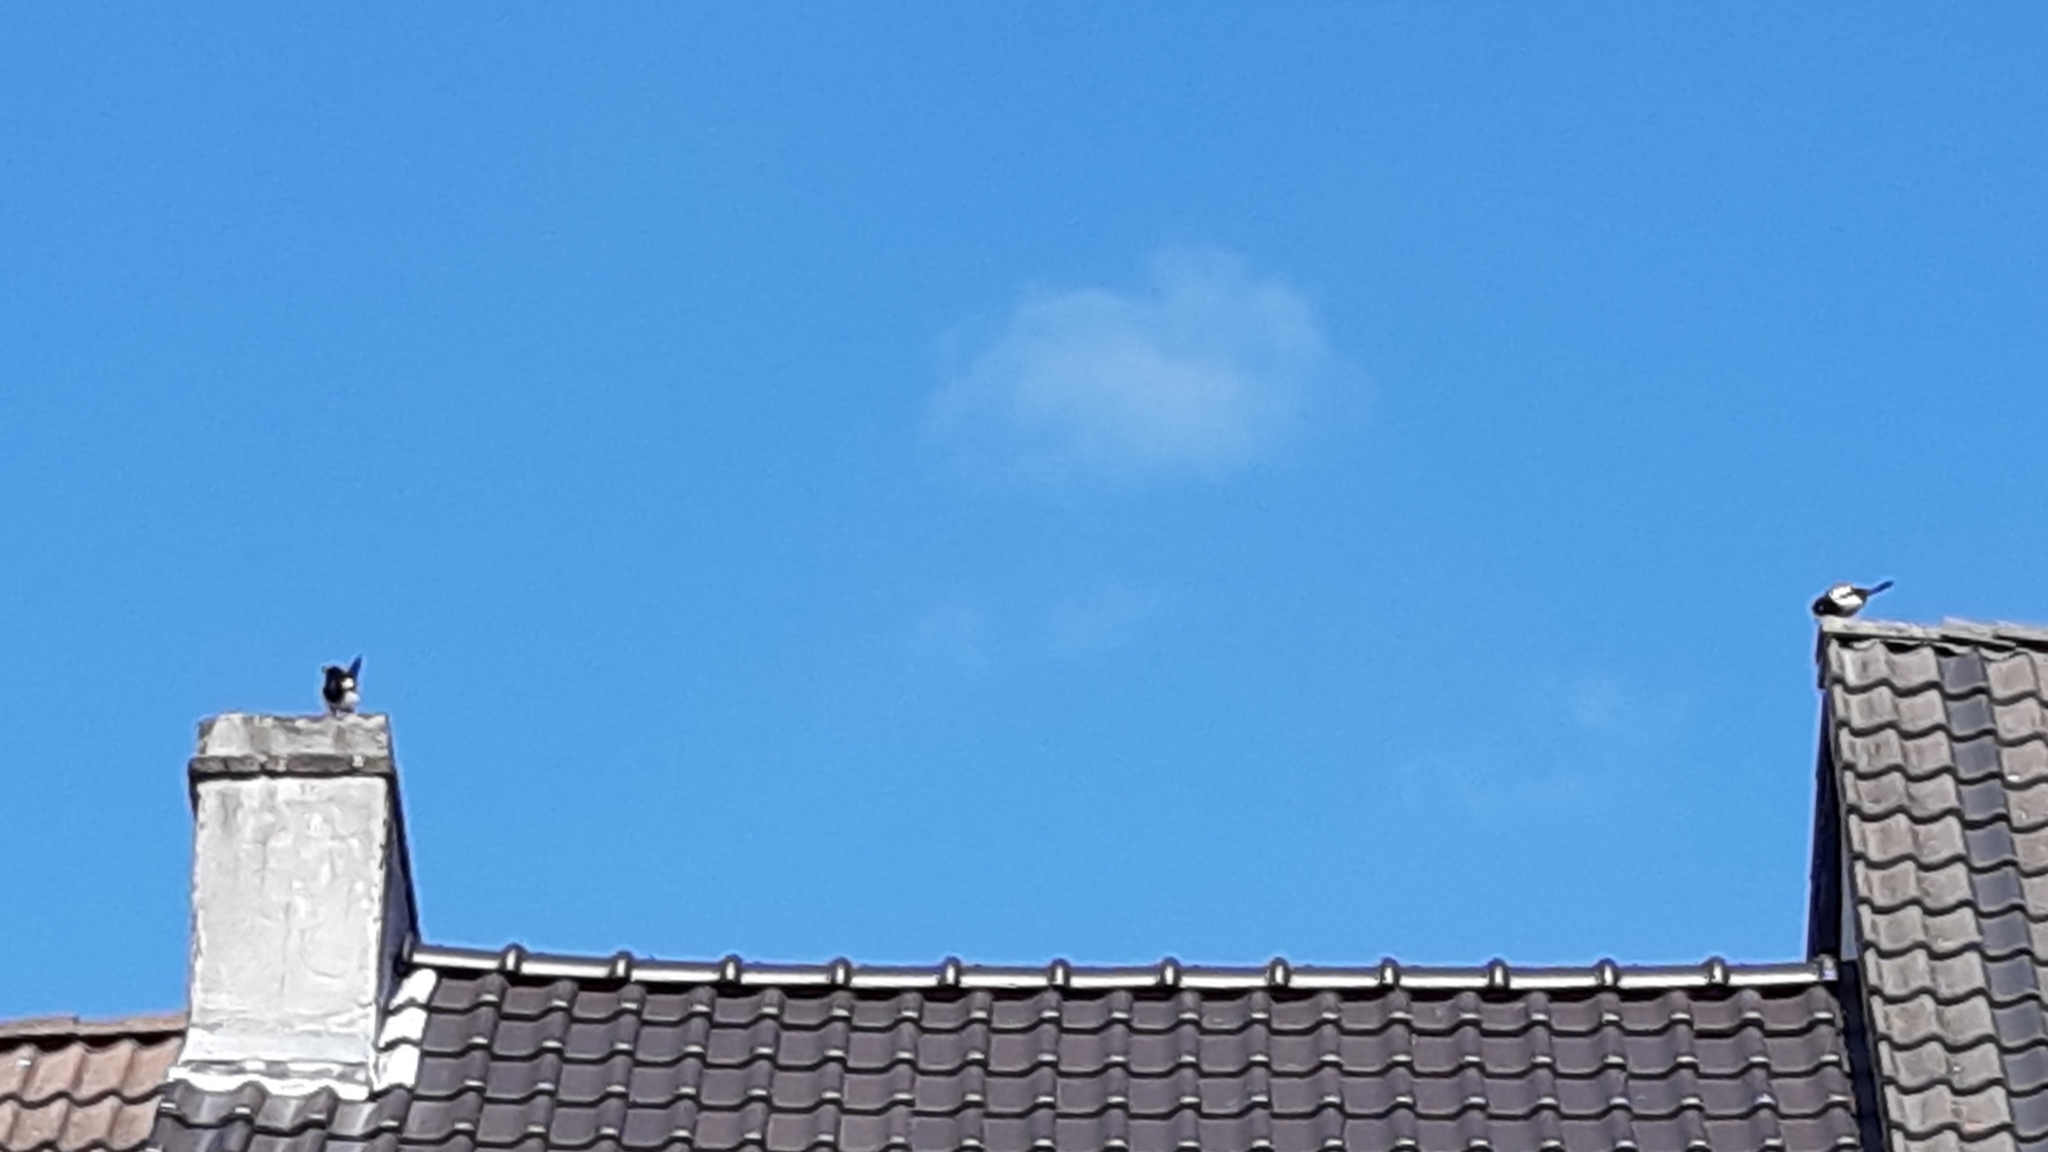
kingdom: Animalia
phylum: Chordata
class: Aves
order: Passeriformes
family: Corvidae
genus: Pica
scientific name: Pica pica
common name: Eurasian magpie
